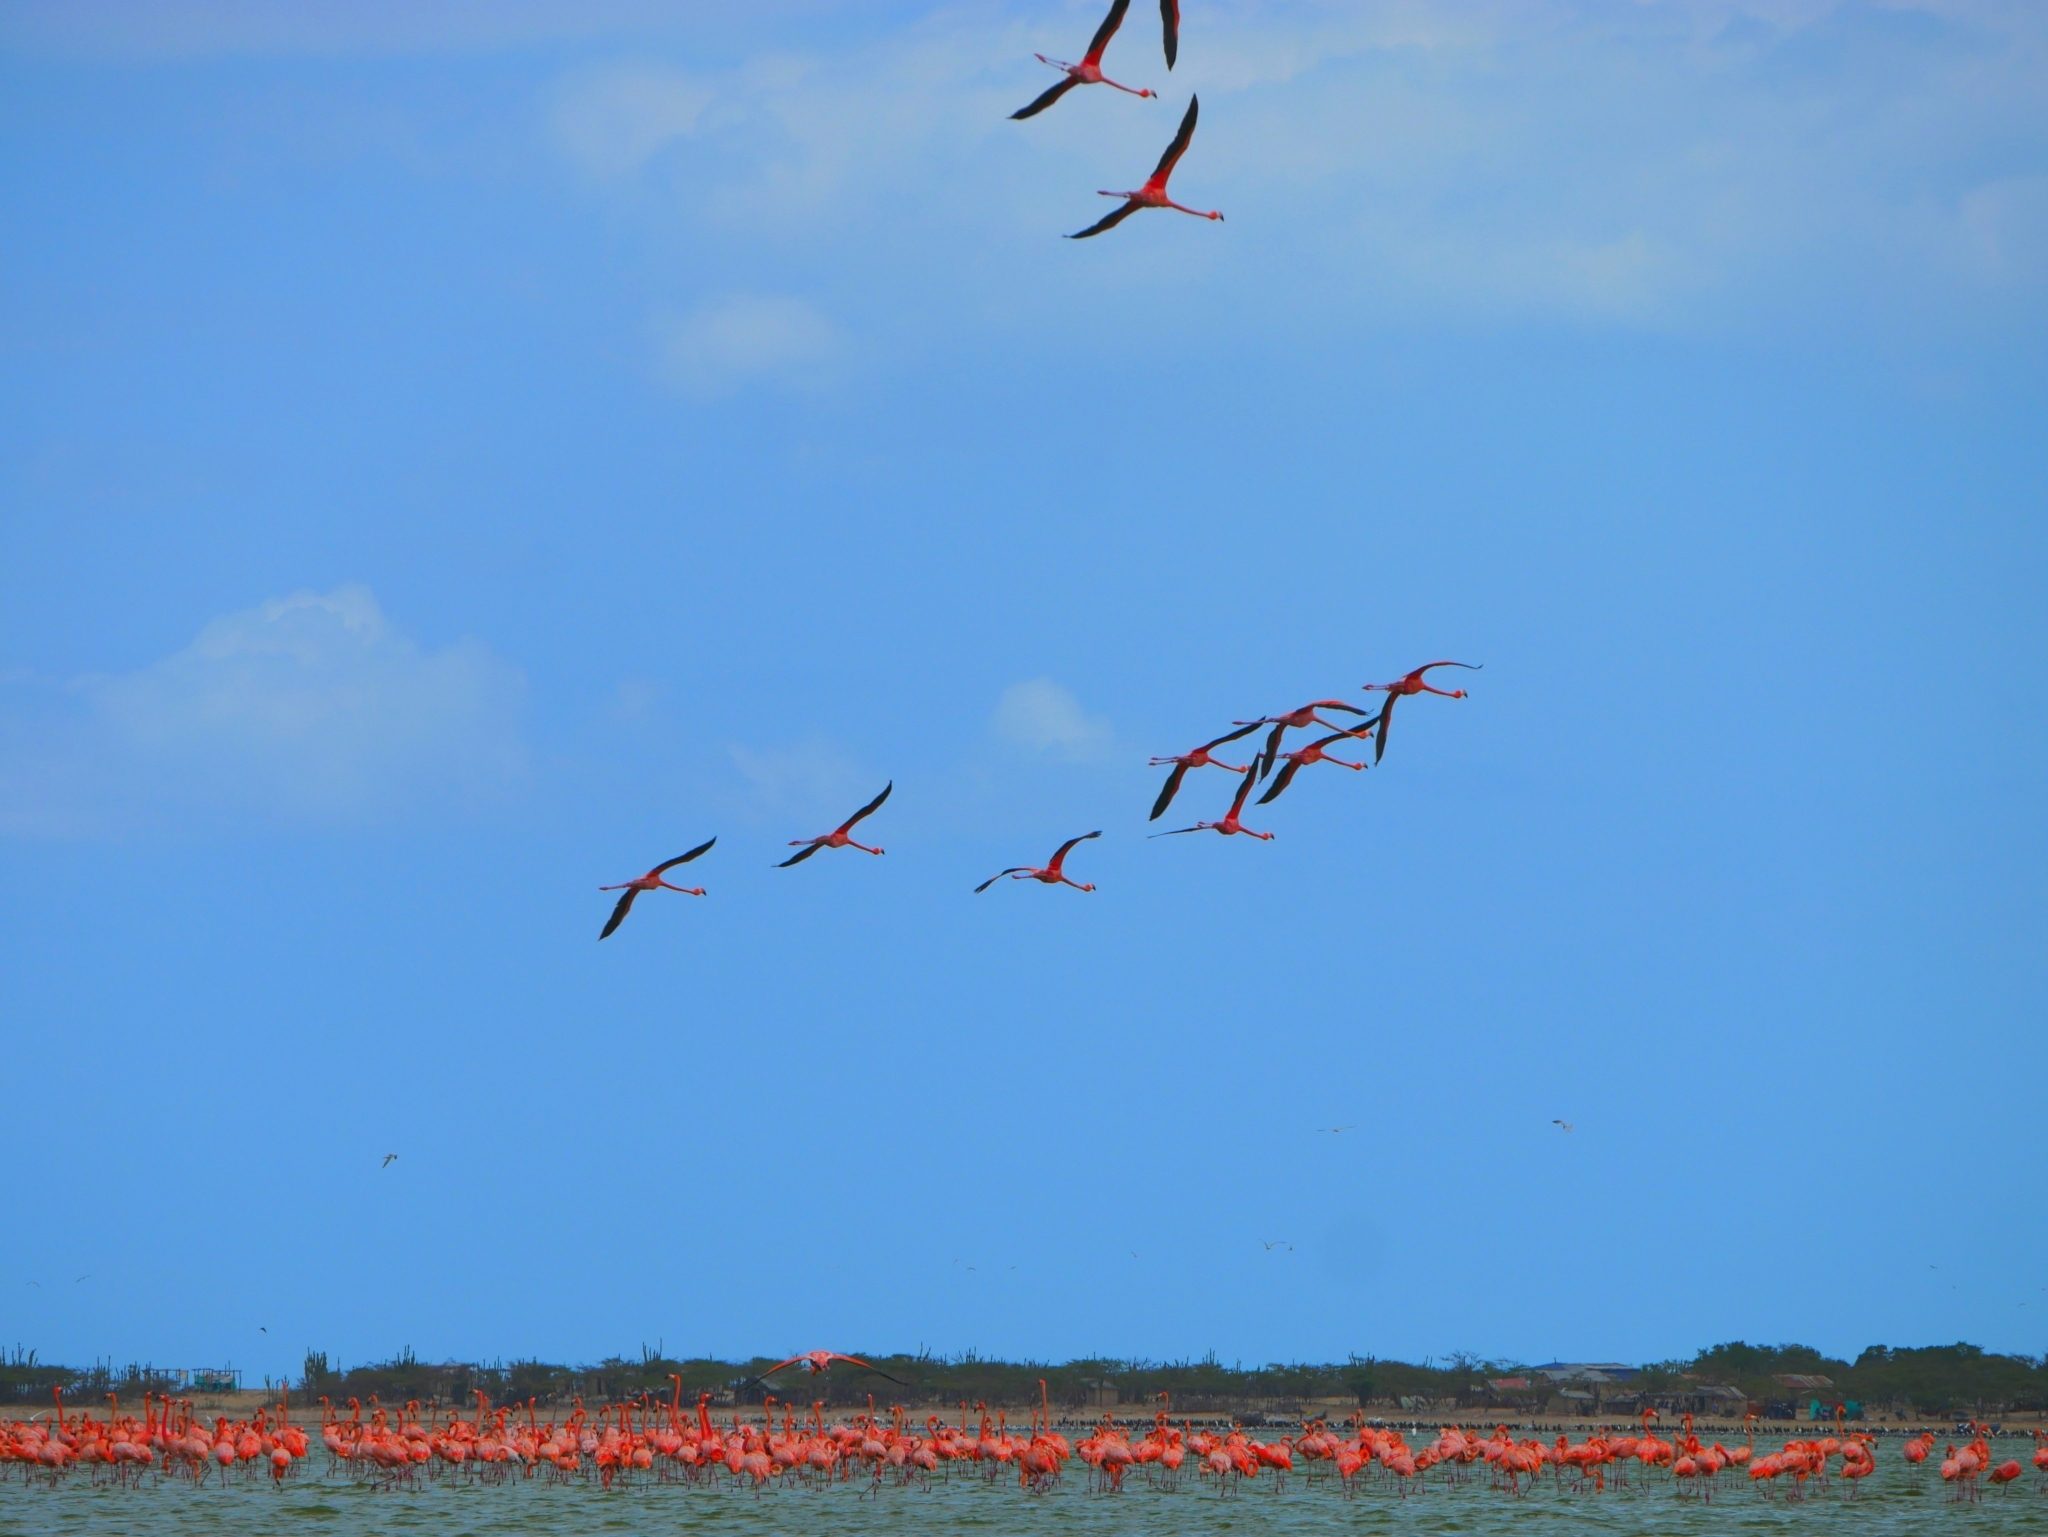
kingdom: Animalia
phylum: Chordata
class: Aves
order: Phoenicopteriformes
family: Phoenicopteridae
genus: Phoenicopterus
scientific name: Phoenicopterus ruber
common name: American flamingo
